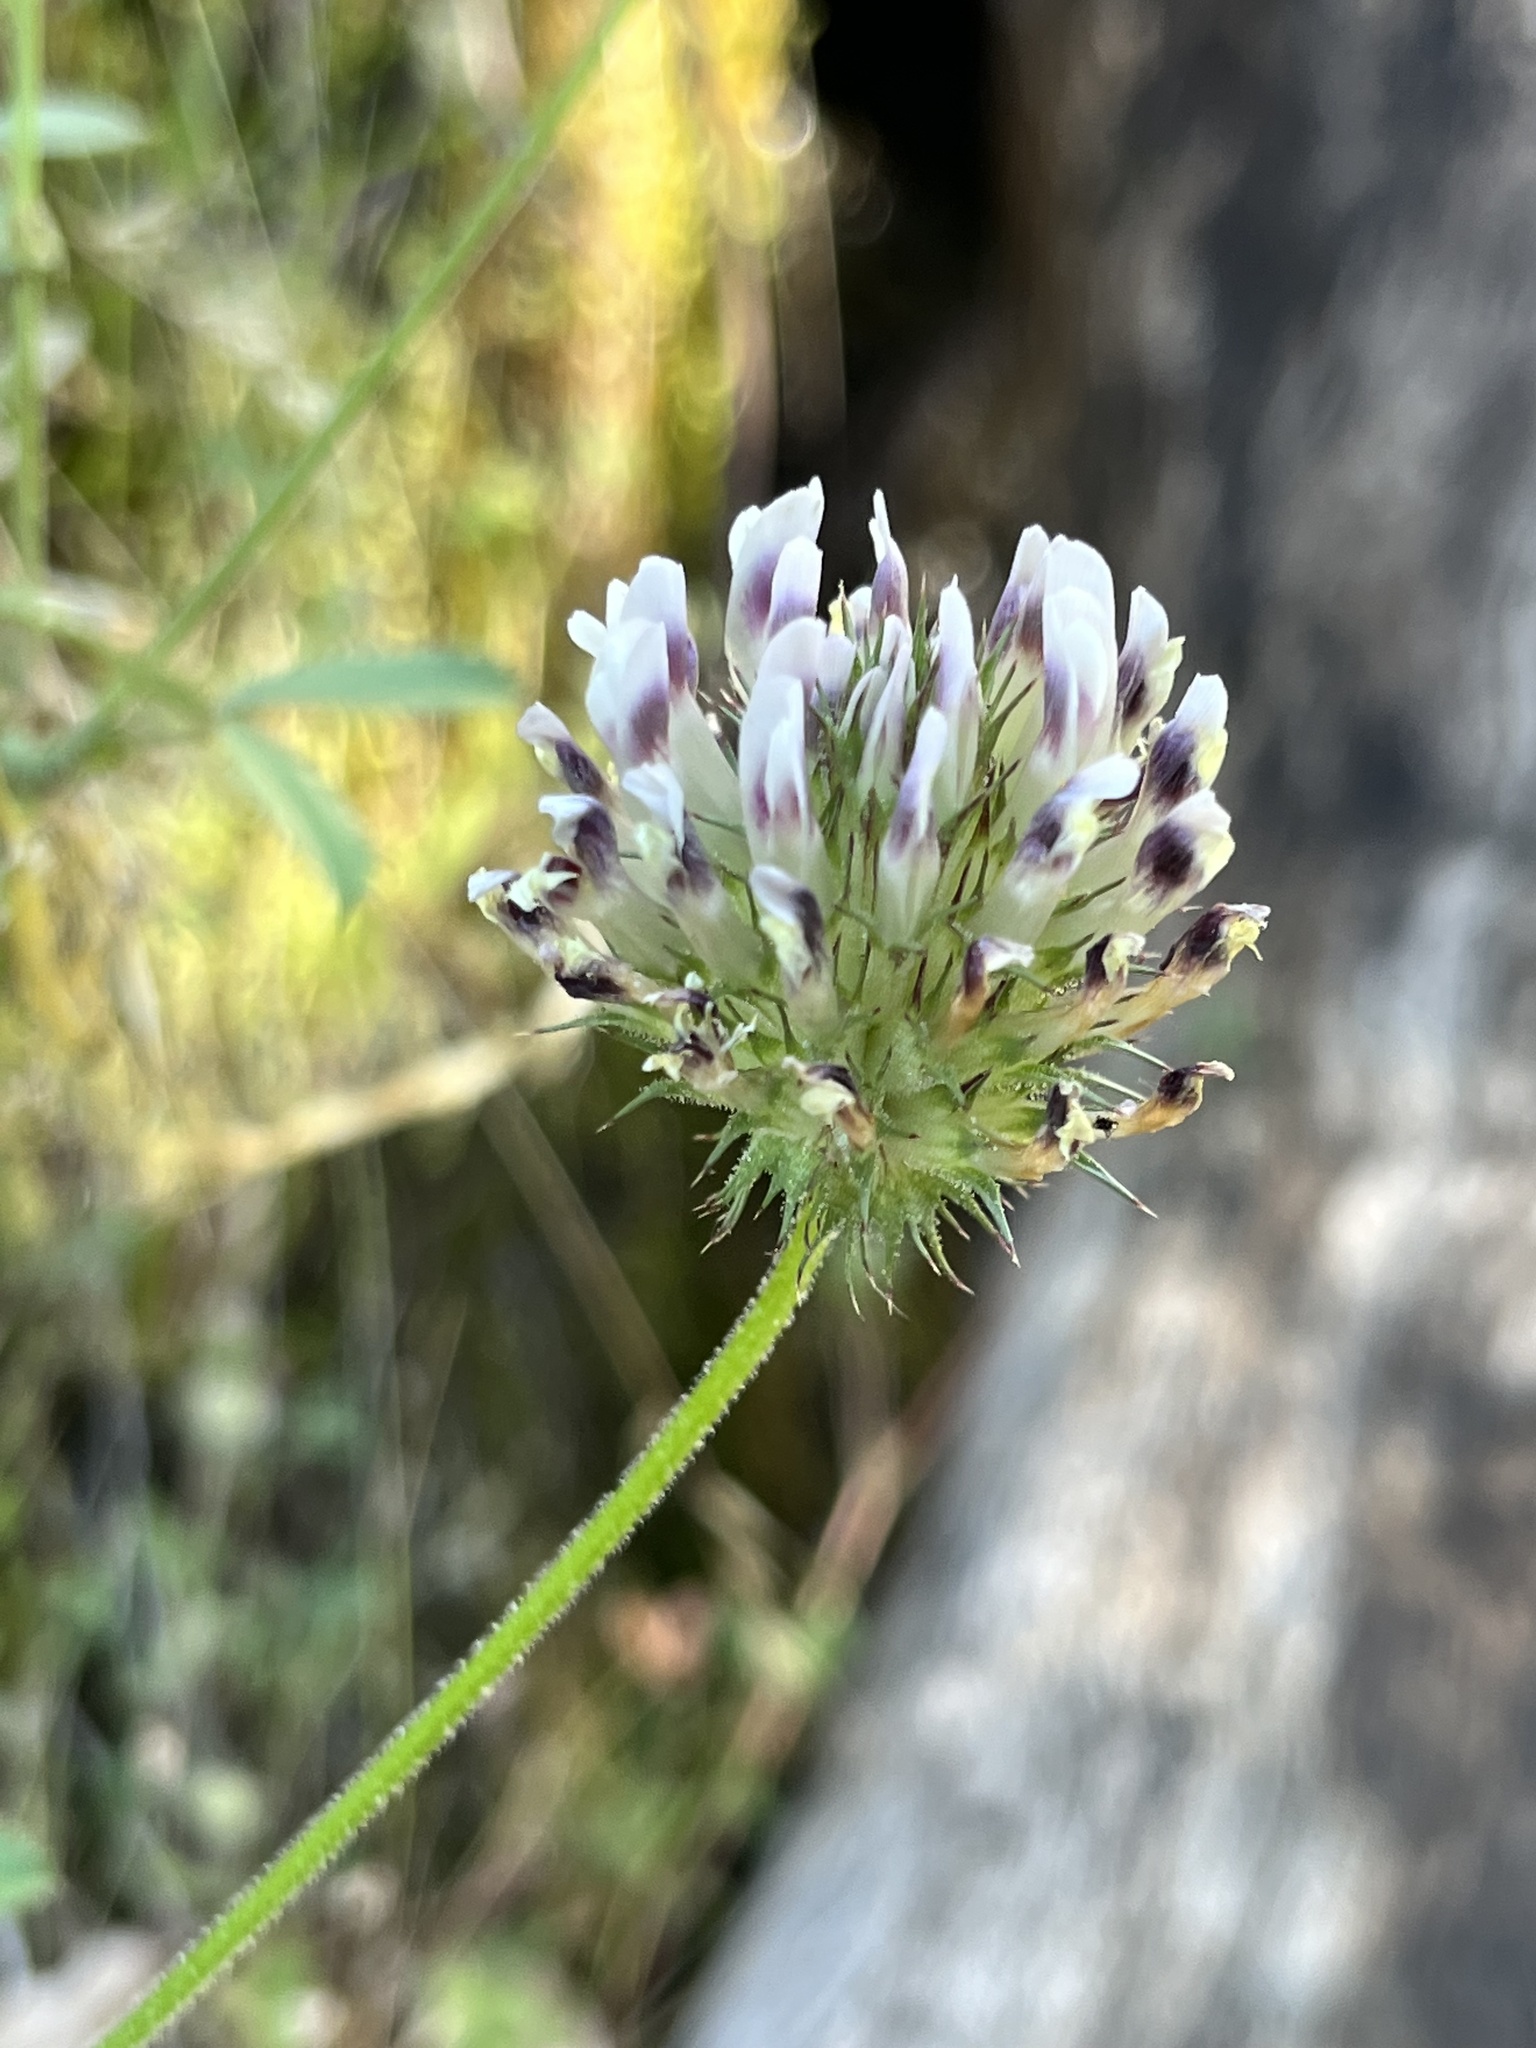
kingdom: Plantae
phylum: Tracheophyta
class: Magnoliopsida
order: Fabales
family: Fabaceae
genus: Trifolium
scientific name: Trifolium obtusiflorum
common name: Clammy clover
